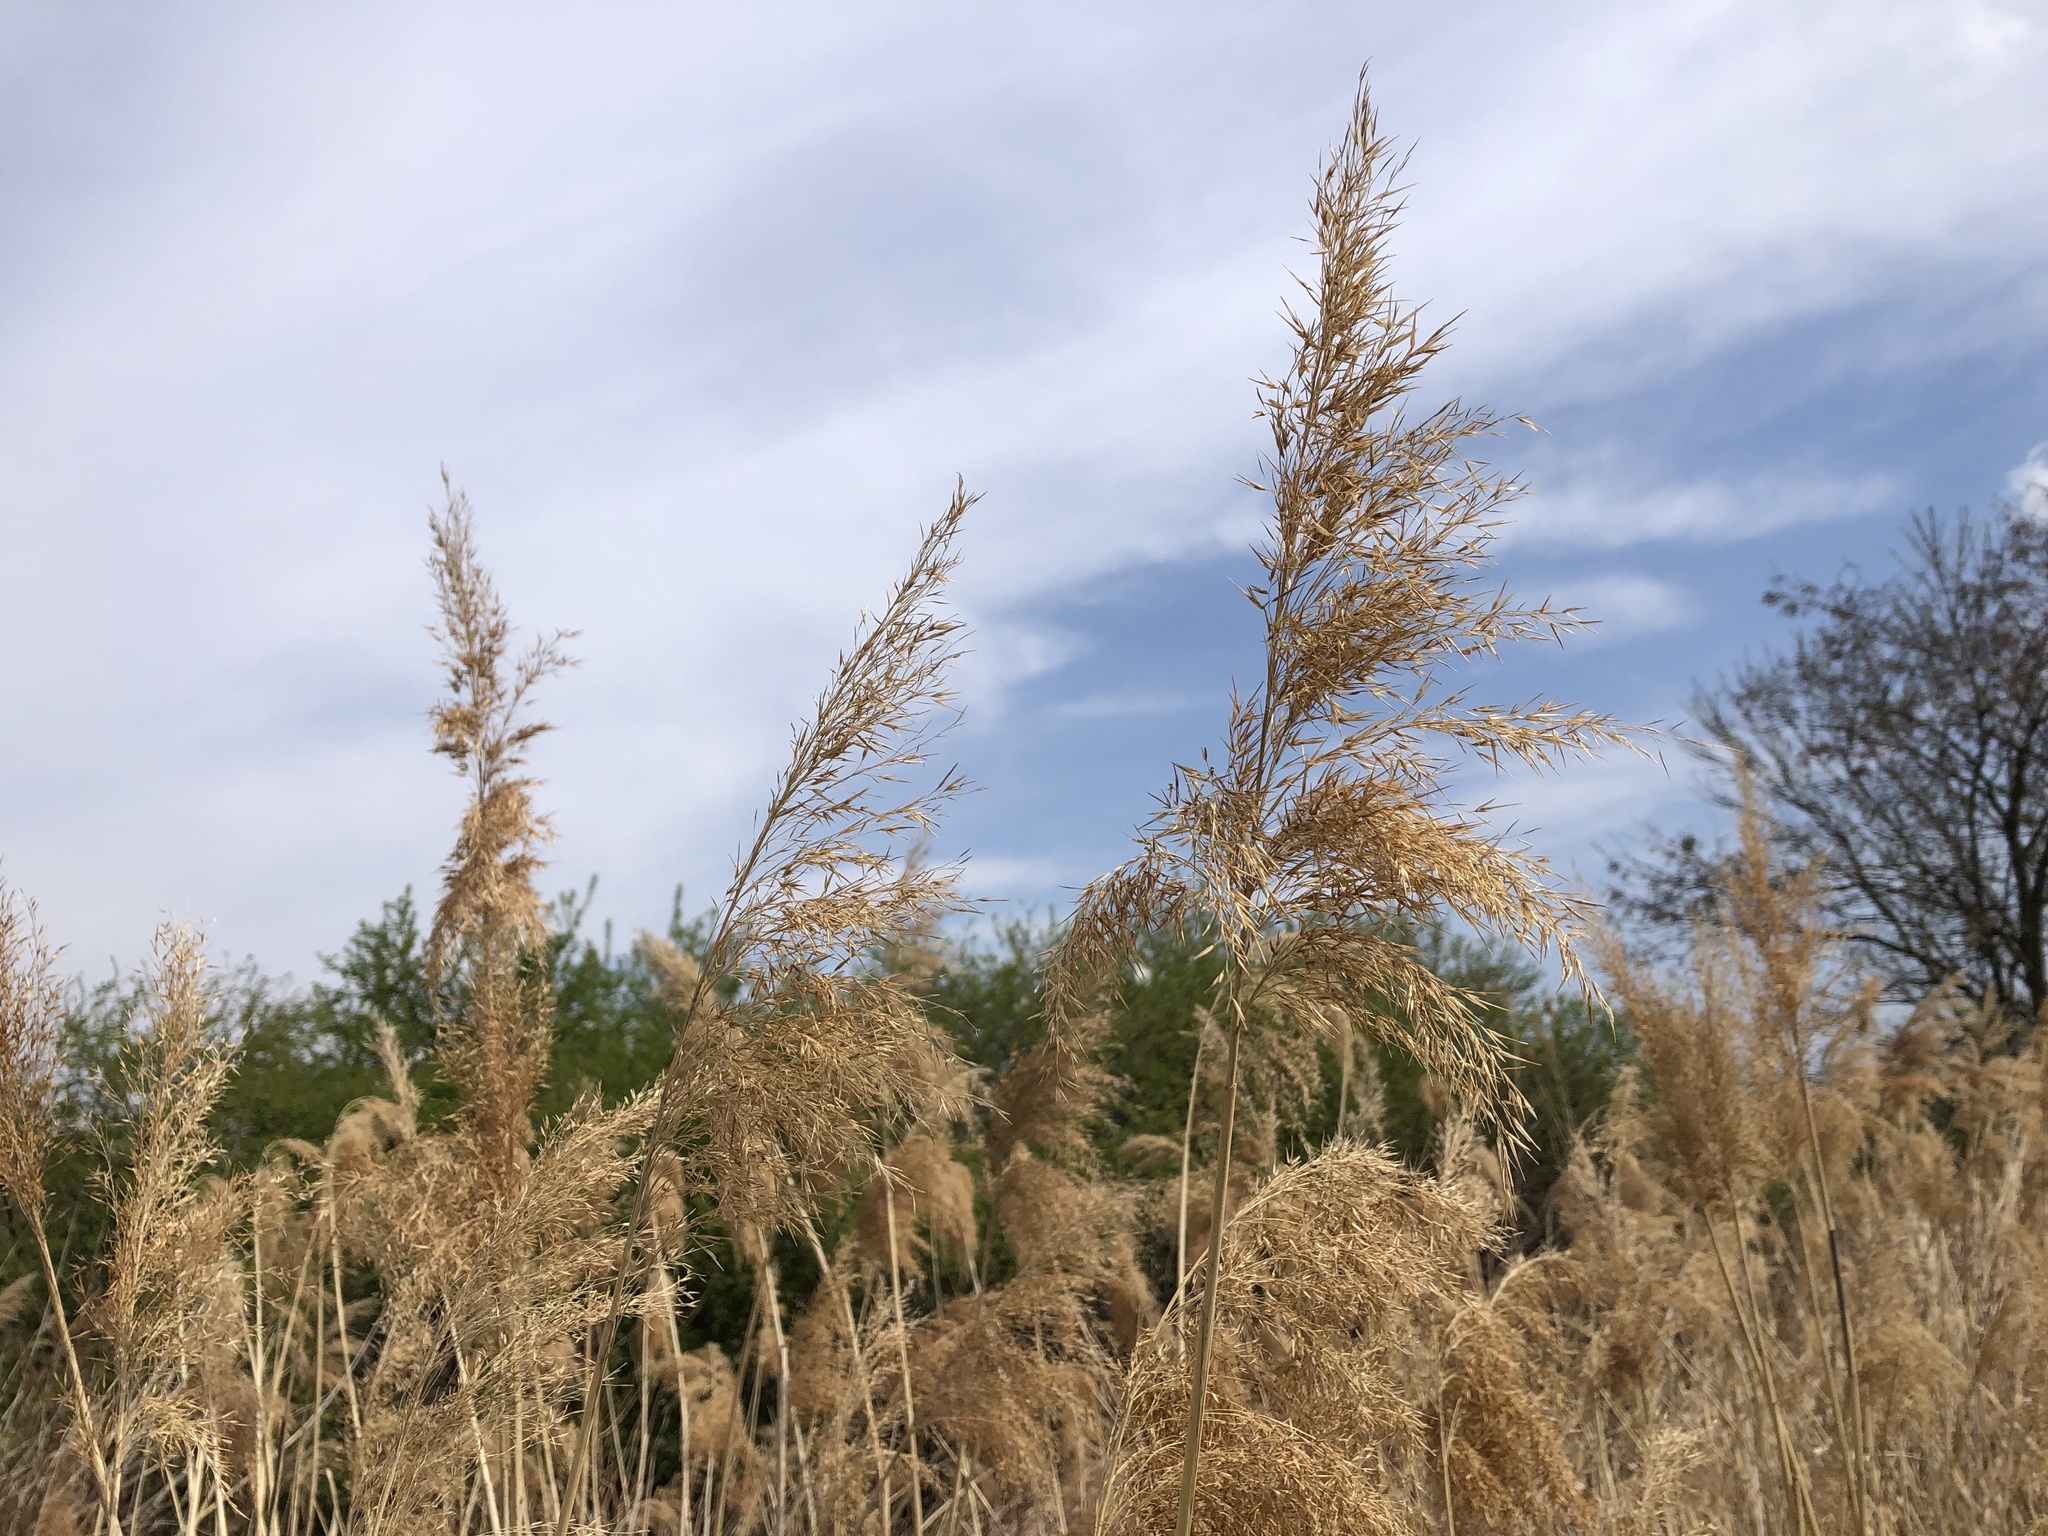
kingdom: Plantae
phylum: Tracheophyta
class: Liliopsida
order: Poales
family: Poaceae
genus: Phragmites
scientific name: Phragmites australis
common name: Common reed
